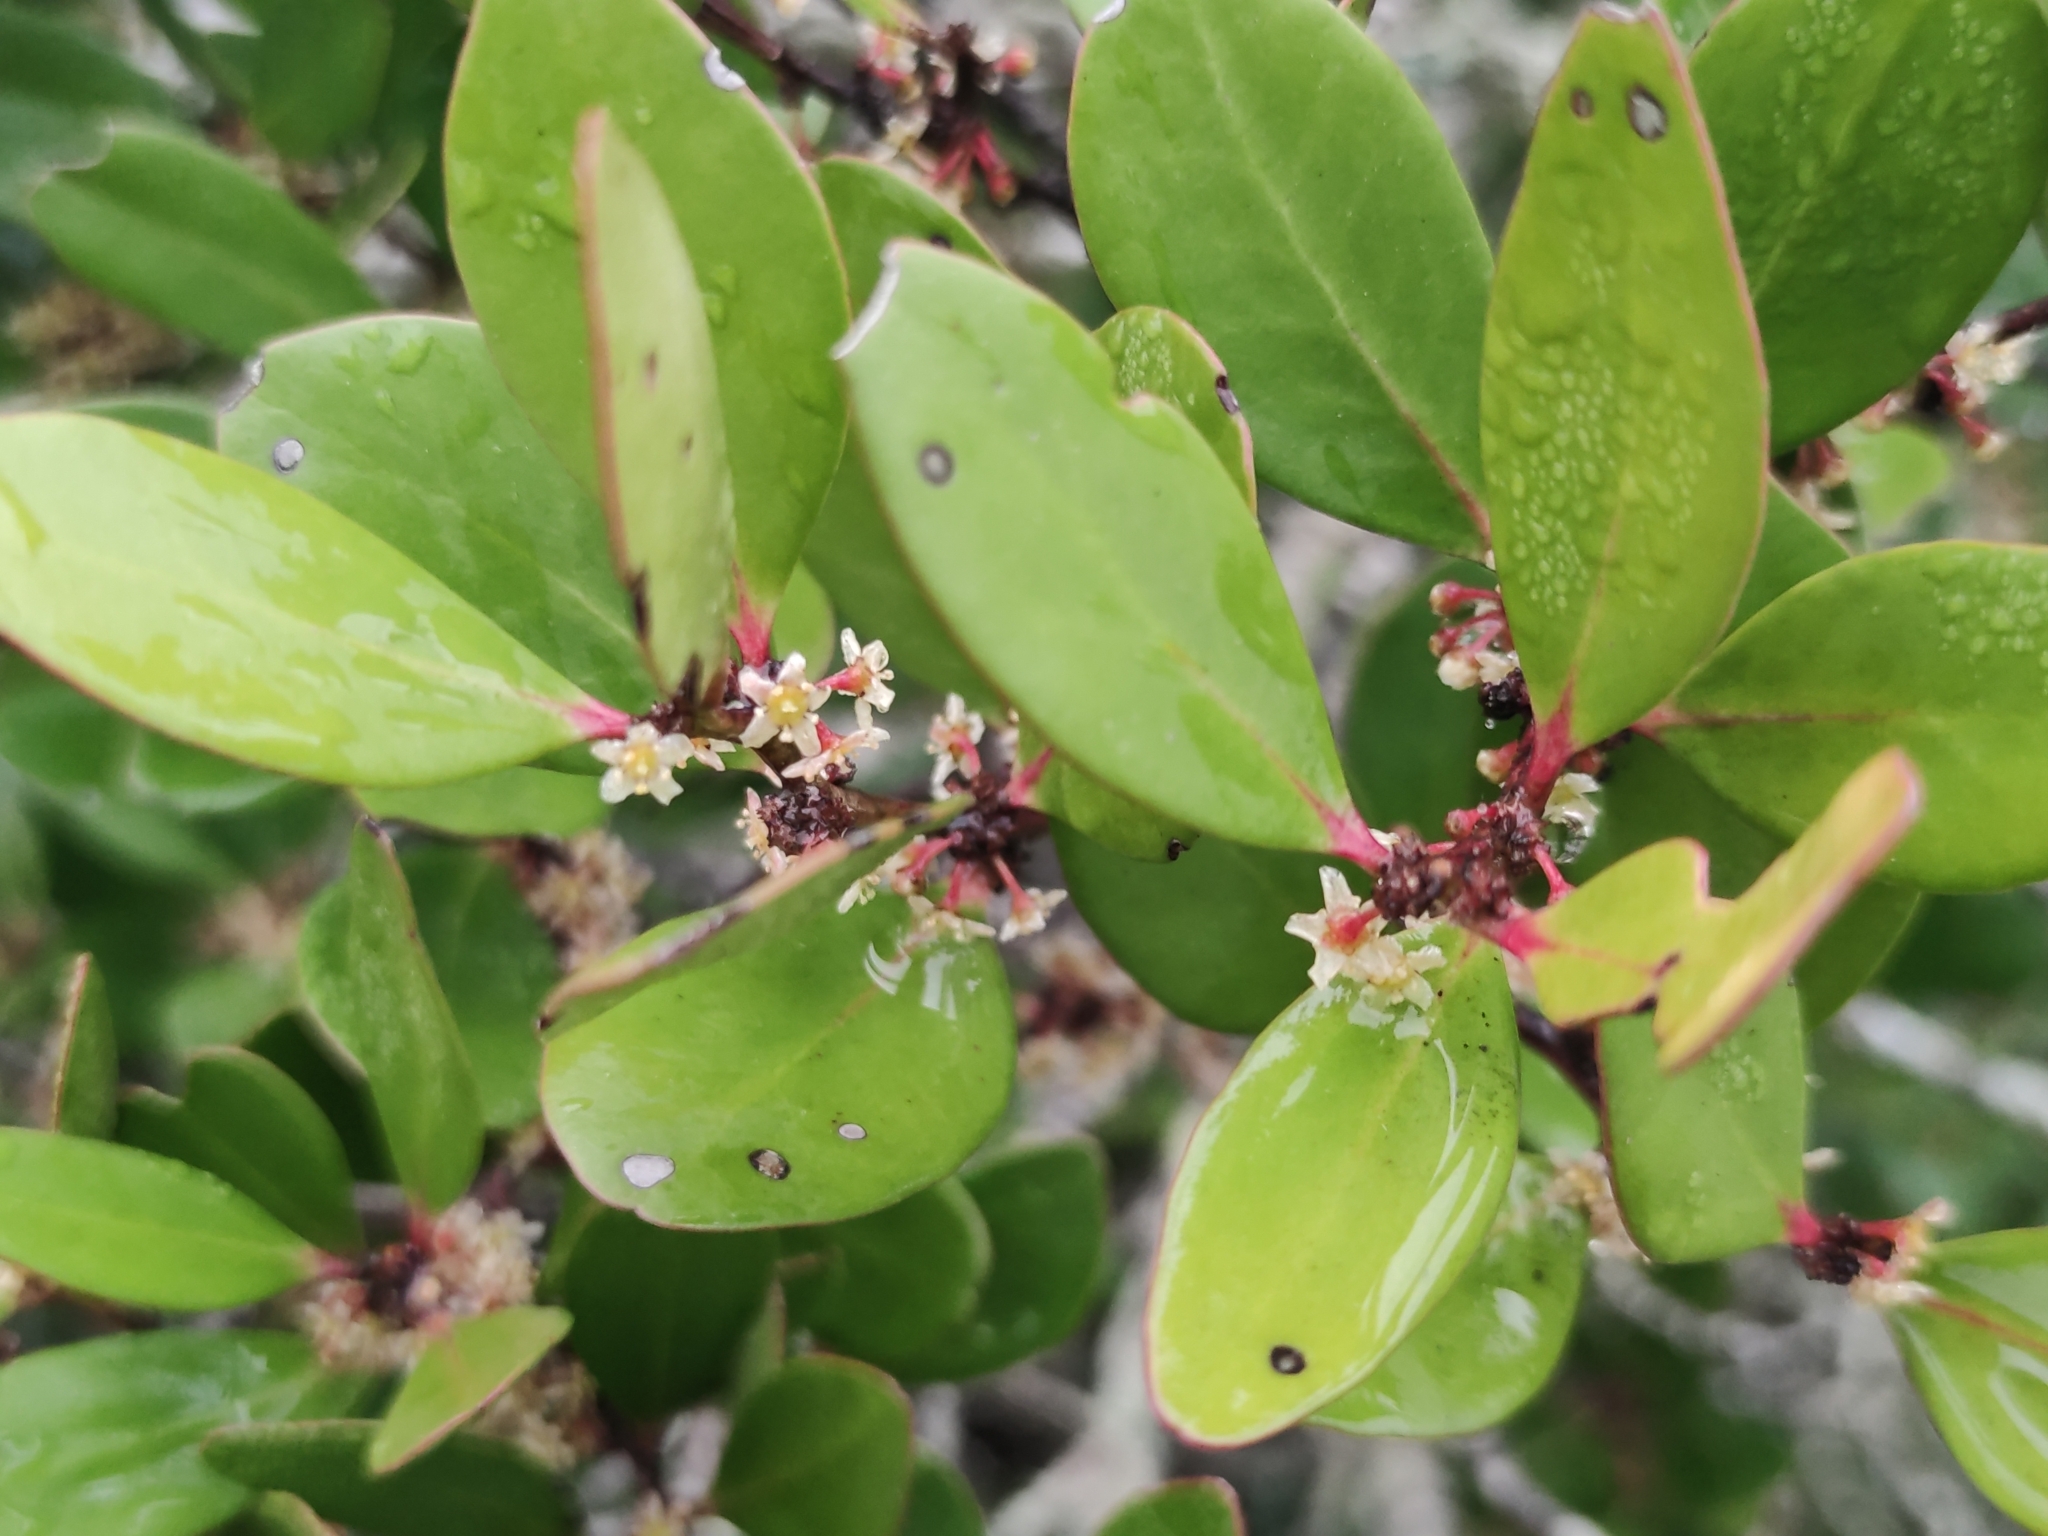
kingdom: Plantae
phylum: Tracheophyta
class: Magnoliopsida
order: Celastrales
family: Celastraceae
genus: Pterocelastrus
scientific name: Pterocelastrus tricuspidatus
